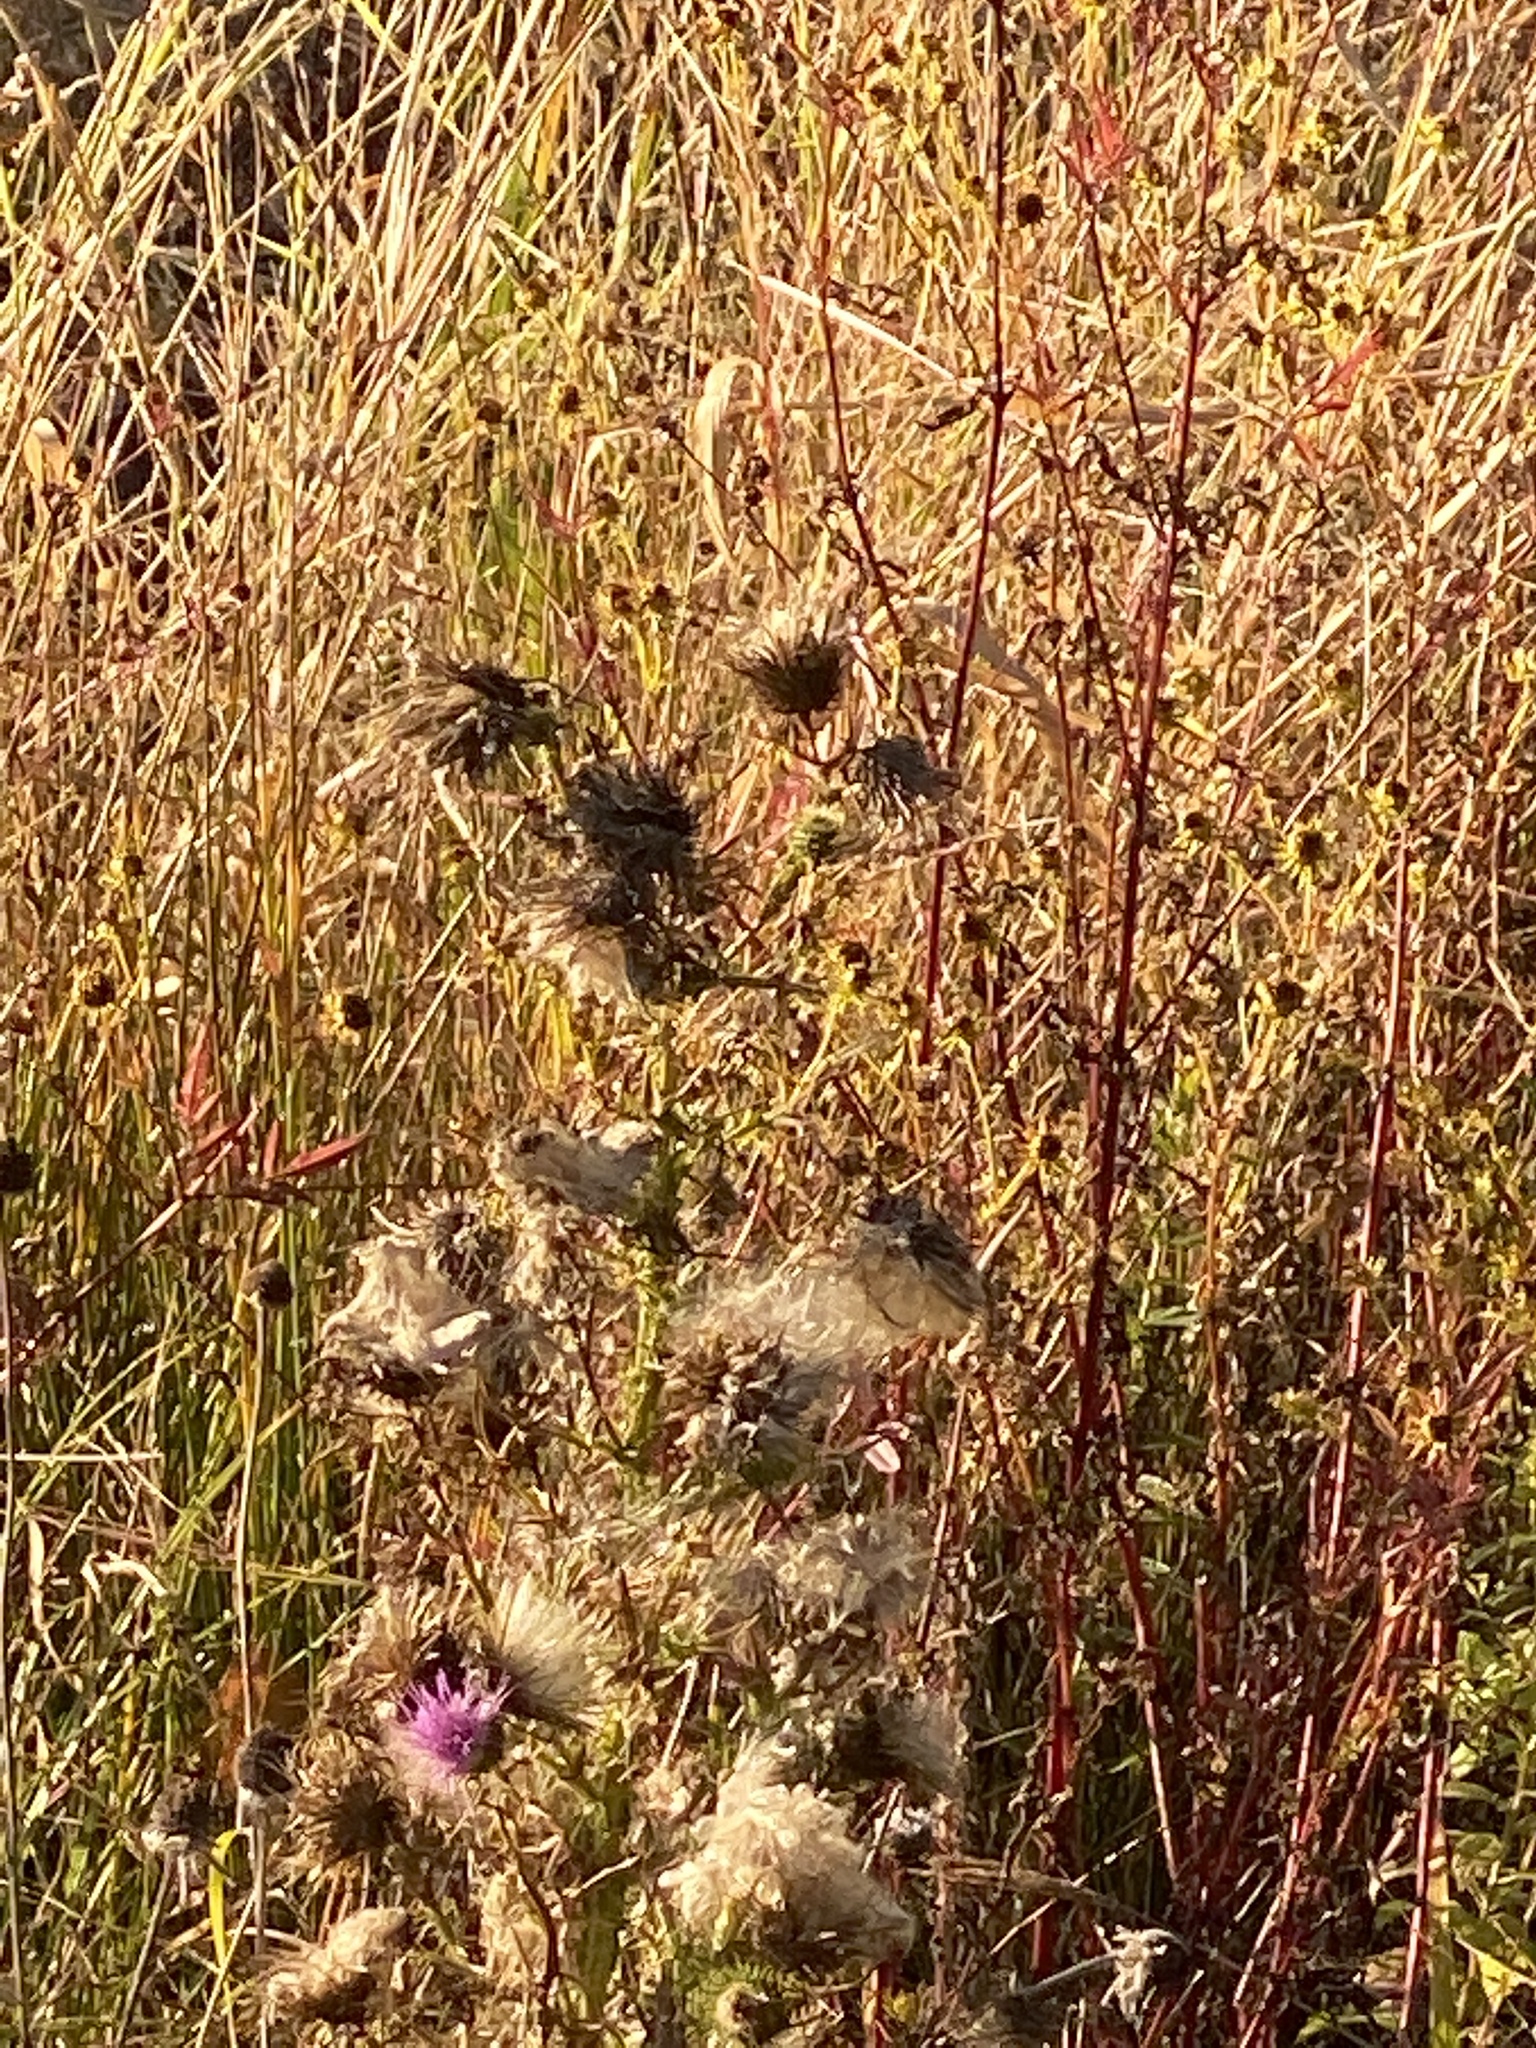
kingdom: Plantae
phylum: Tracheophyta
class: Magnoliopsida
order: Asterales
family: Asteraceae
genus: Cirsium
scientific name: Cirsium vulgare
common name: Bull thistle
